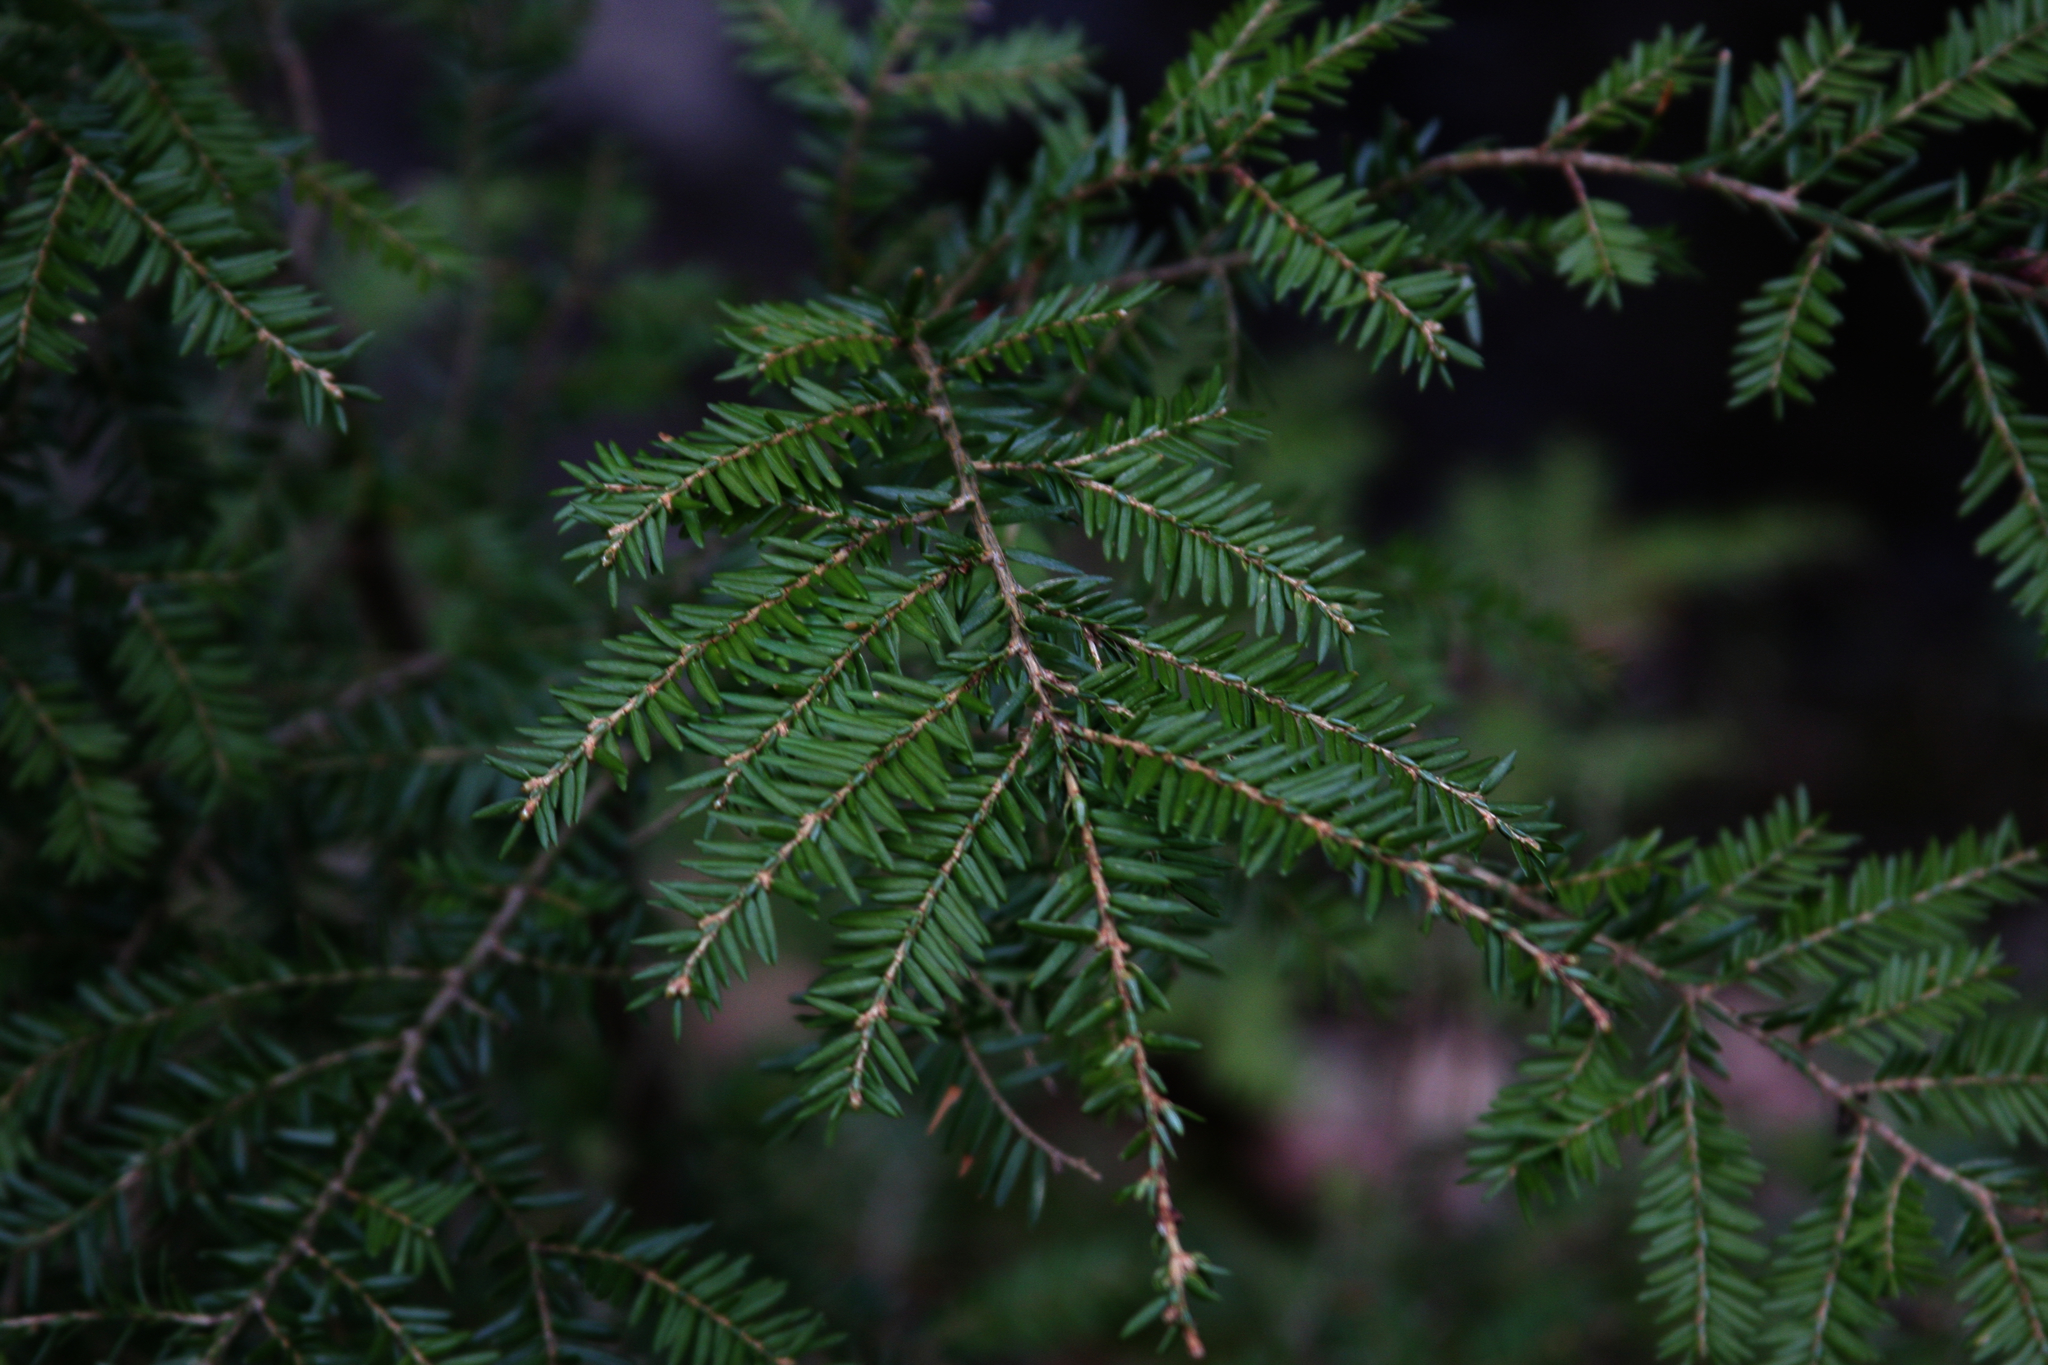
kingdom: Plantae
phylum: Tracheophyta
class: Pinopsida
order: Pinales
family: Pinaceae
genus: Tsuga
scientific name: Tsuga canadensis
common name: Eastern hemlock
